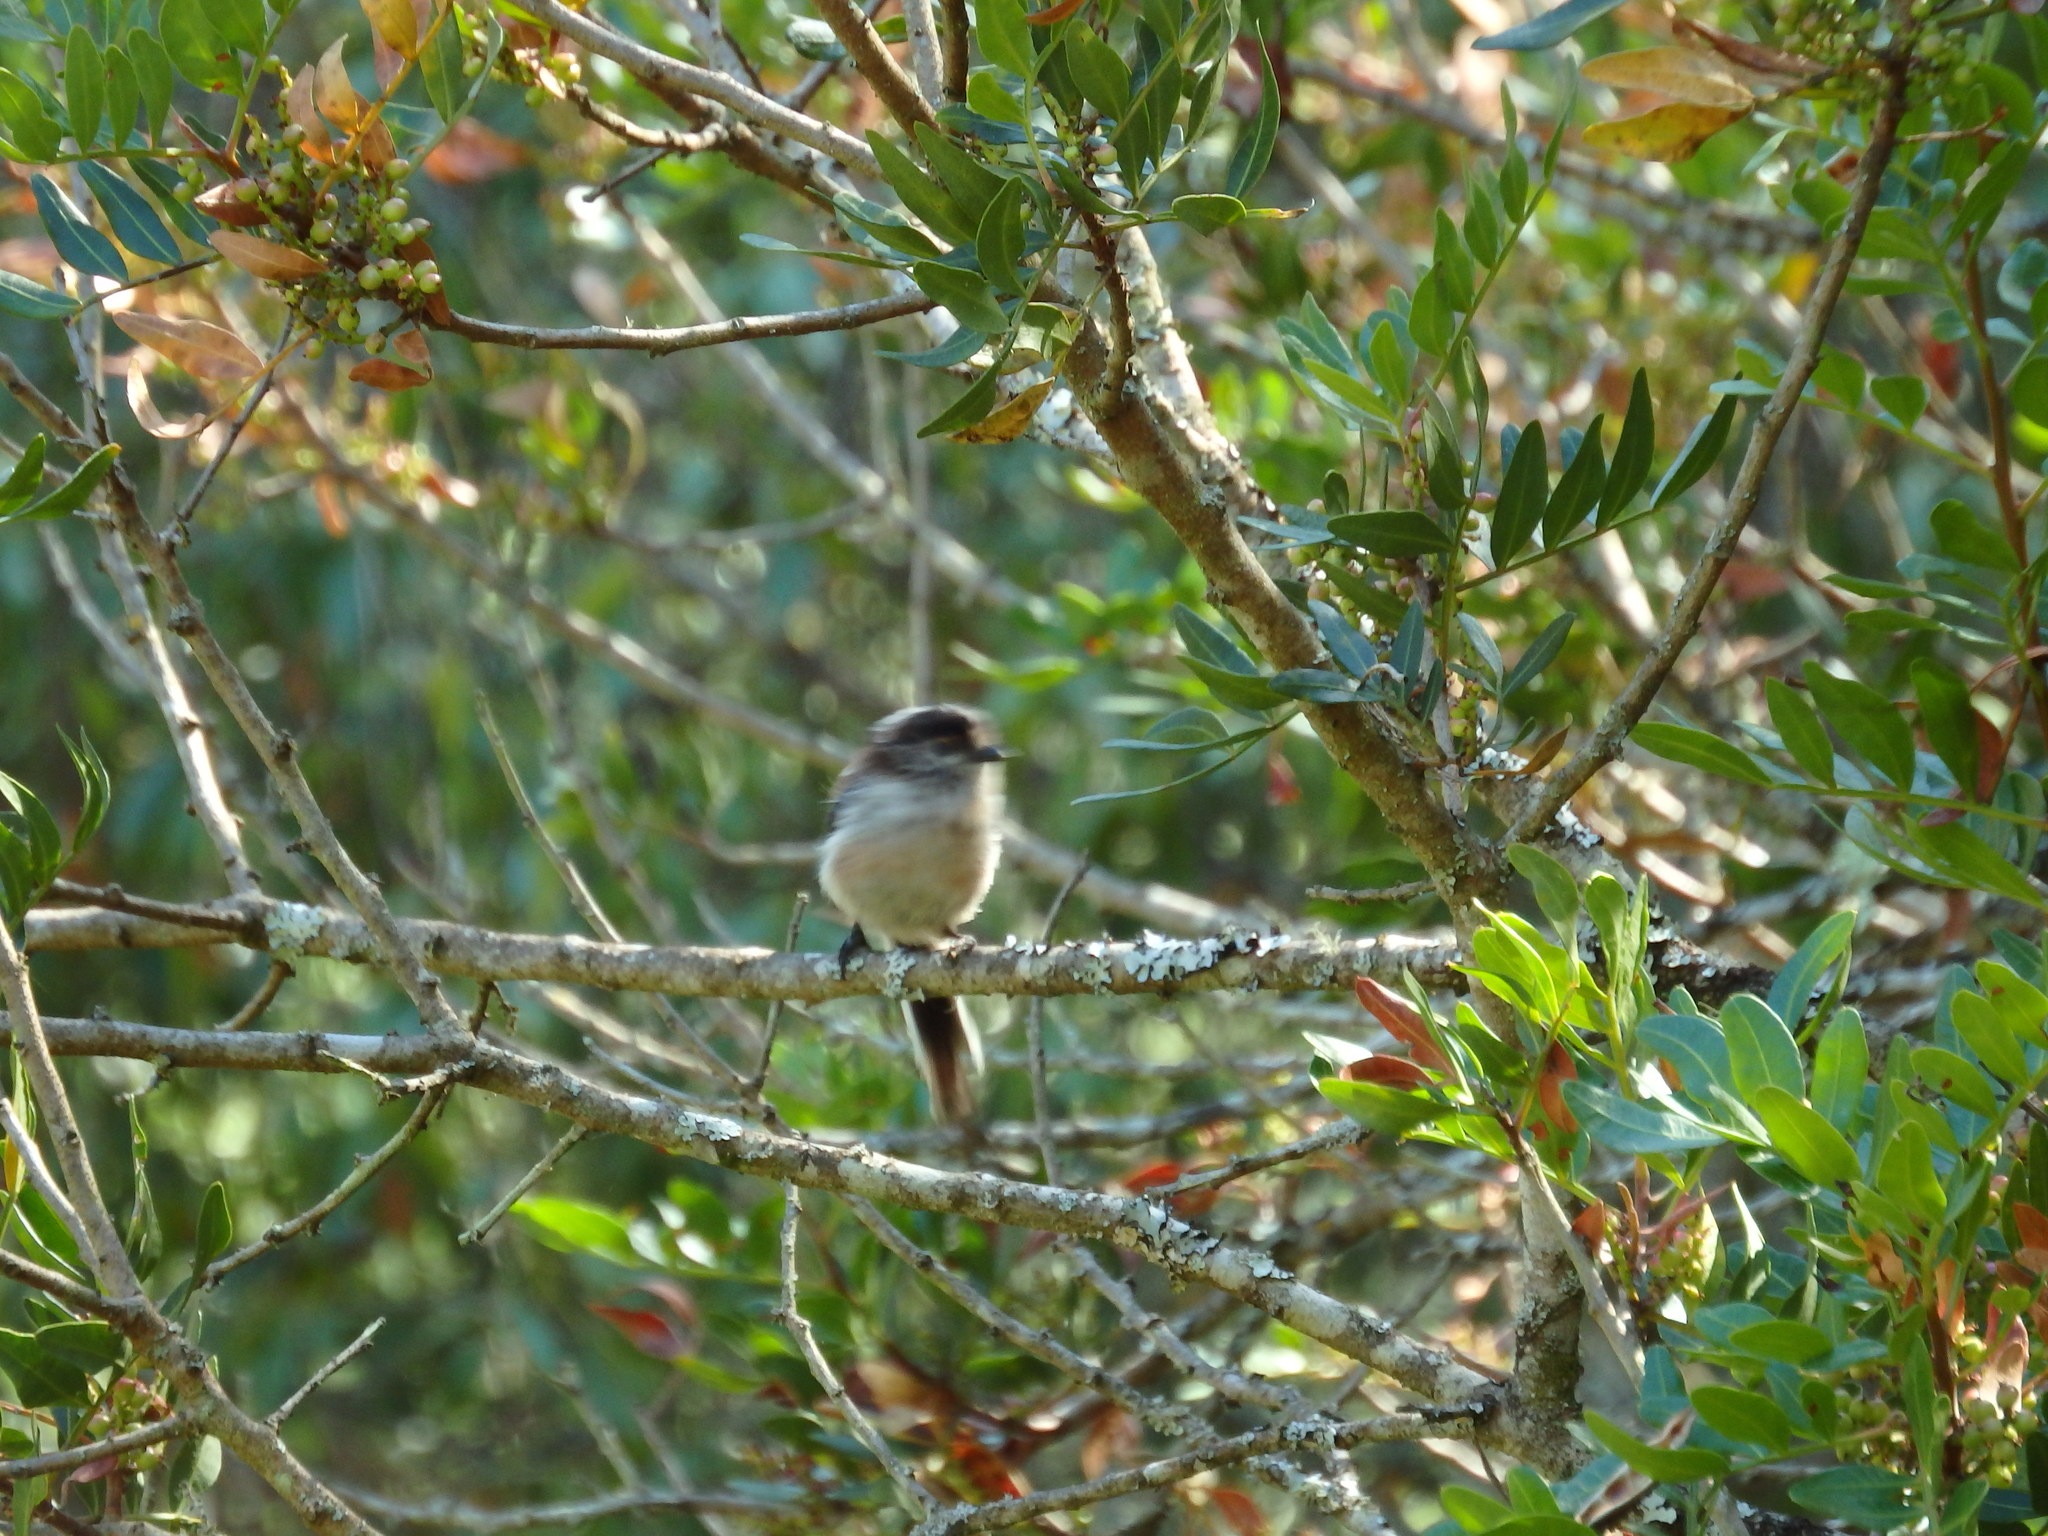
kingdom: Animalia
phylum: Chordata
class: Aves
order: Passeriformes
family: Aegithalidae
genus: Aegithalos
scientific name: Aegithalos caudatus
